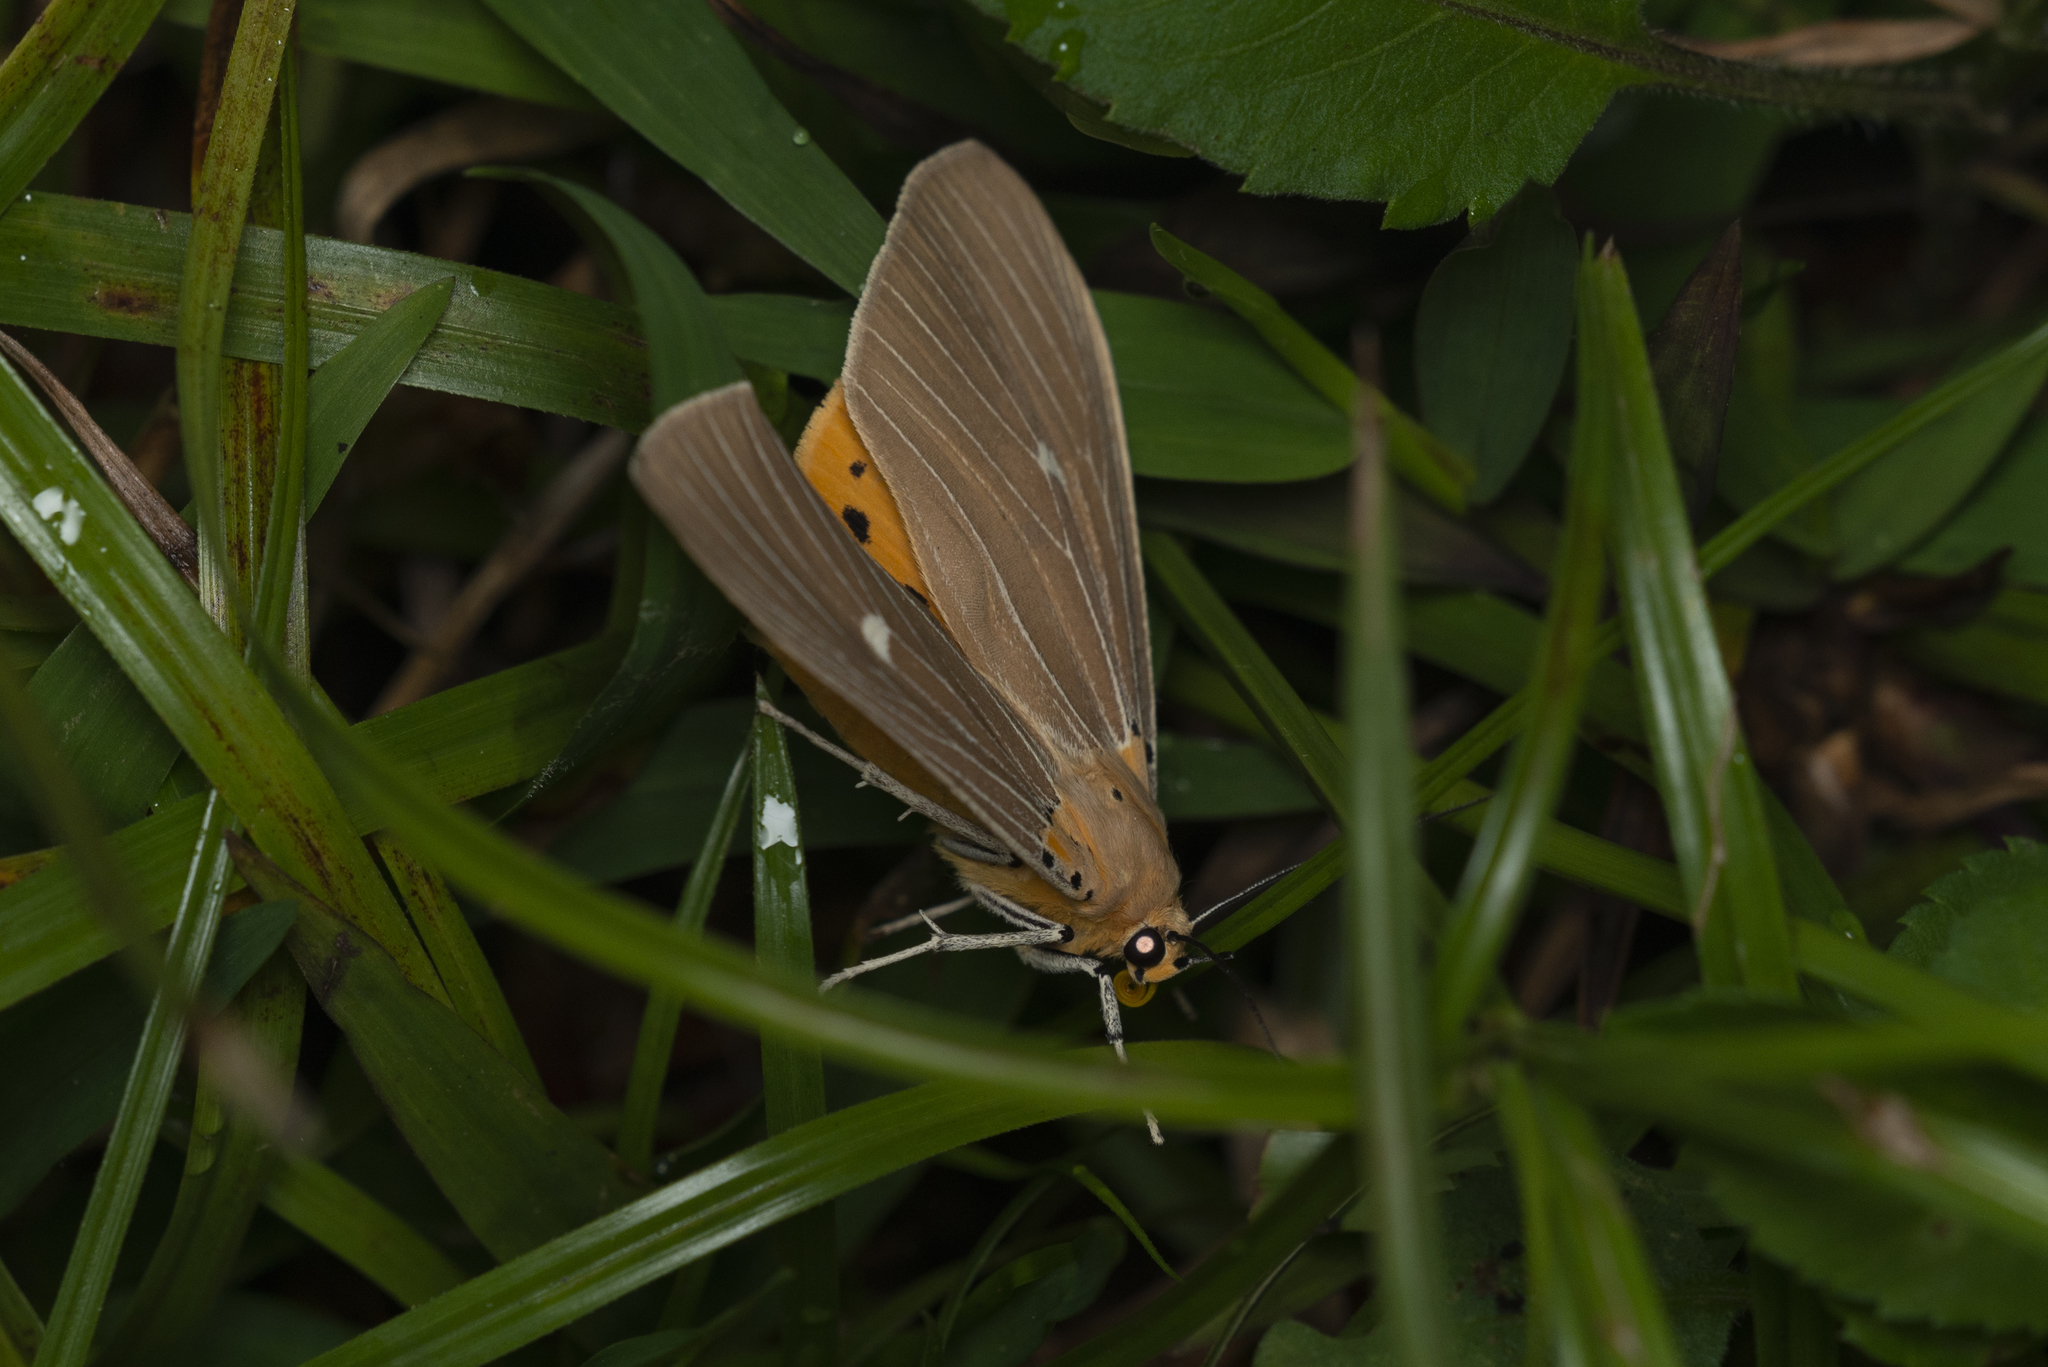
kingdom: Animalia
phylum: Arthropoda
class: Insecta
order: Lepidoptera
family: Erebidae
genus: Asota
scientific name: Asota caricae
